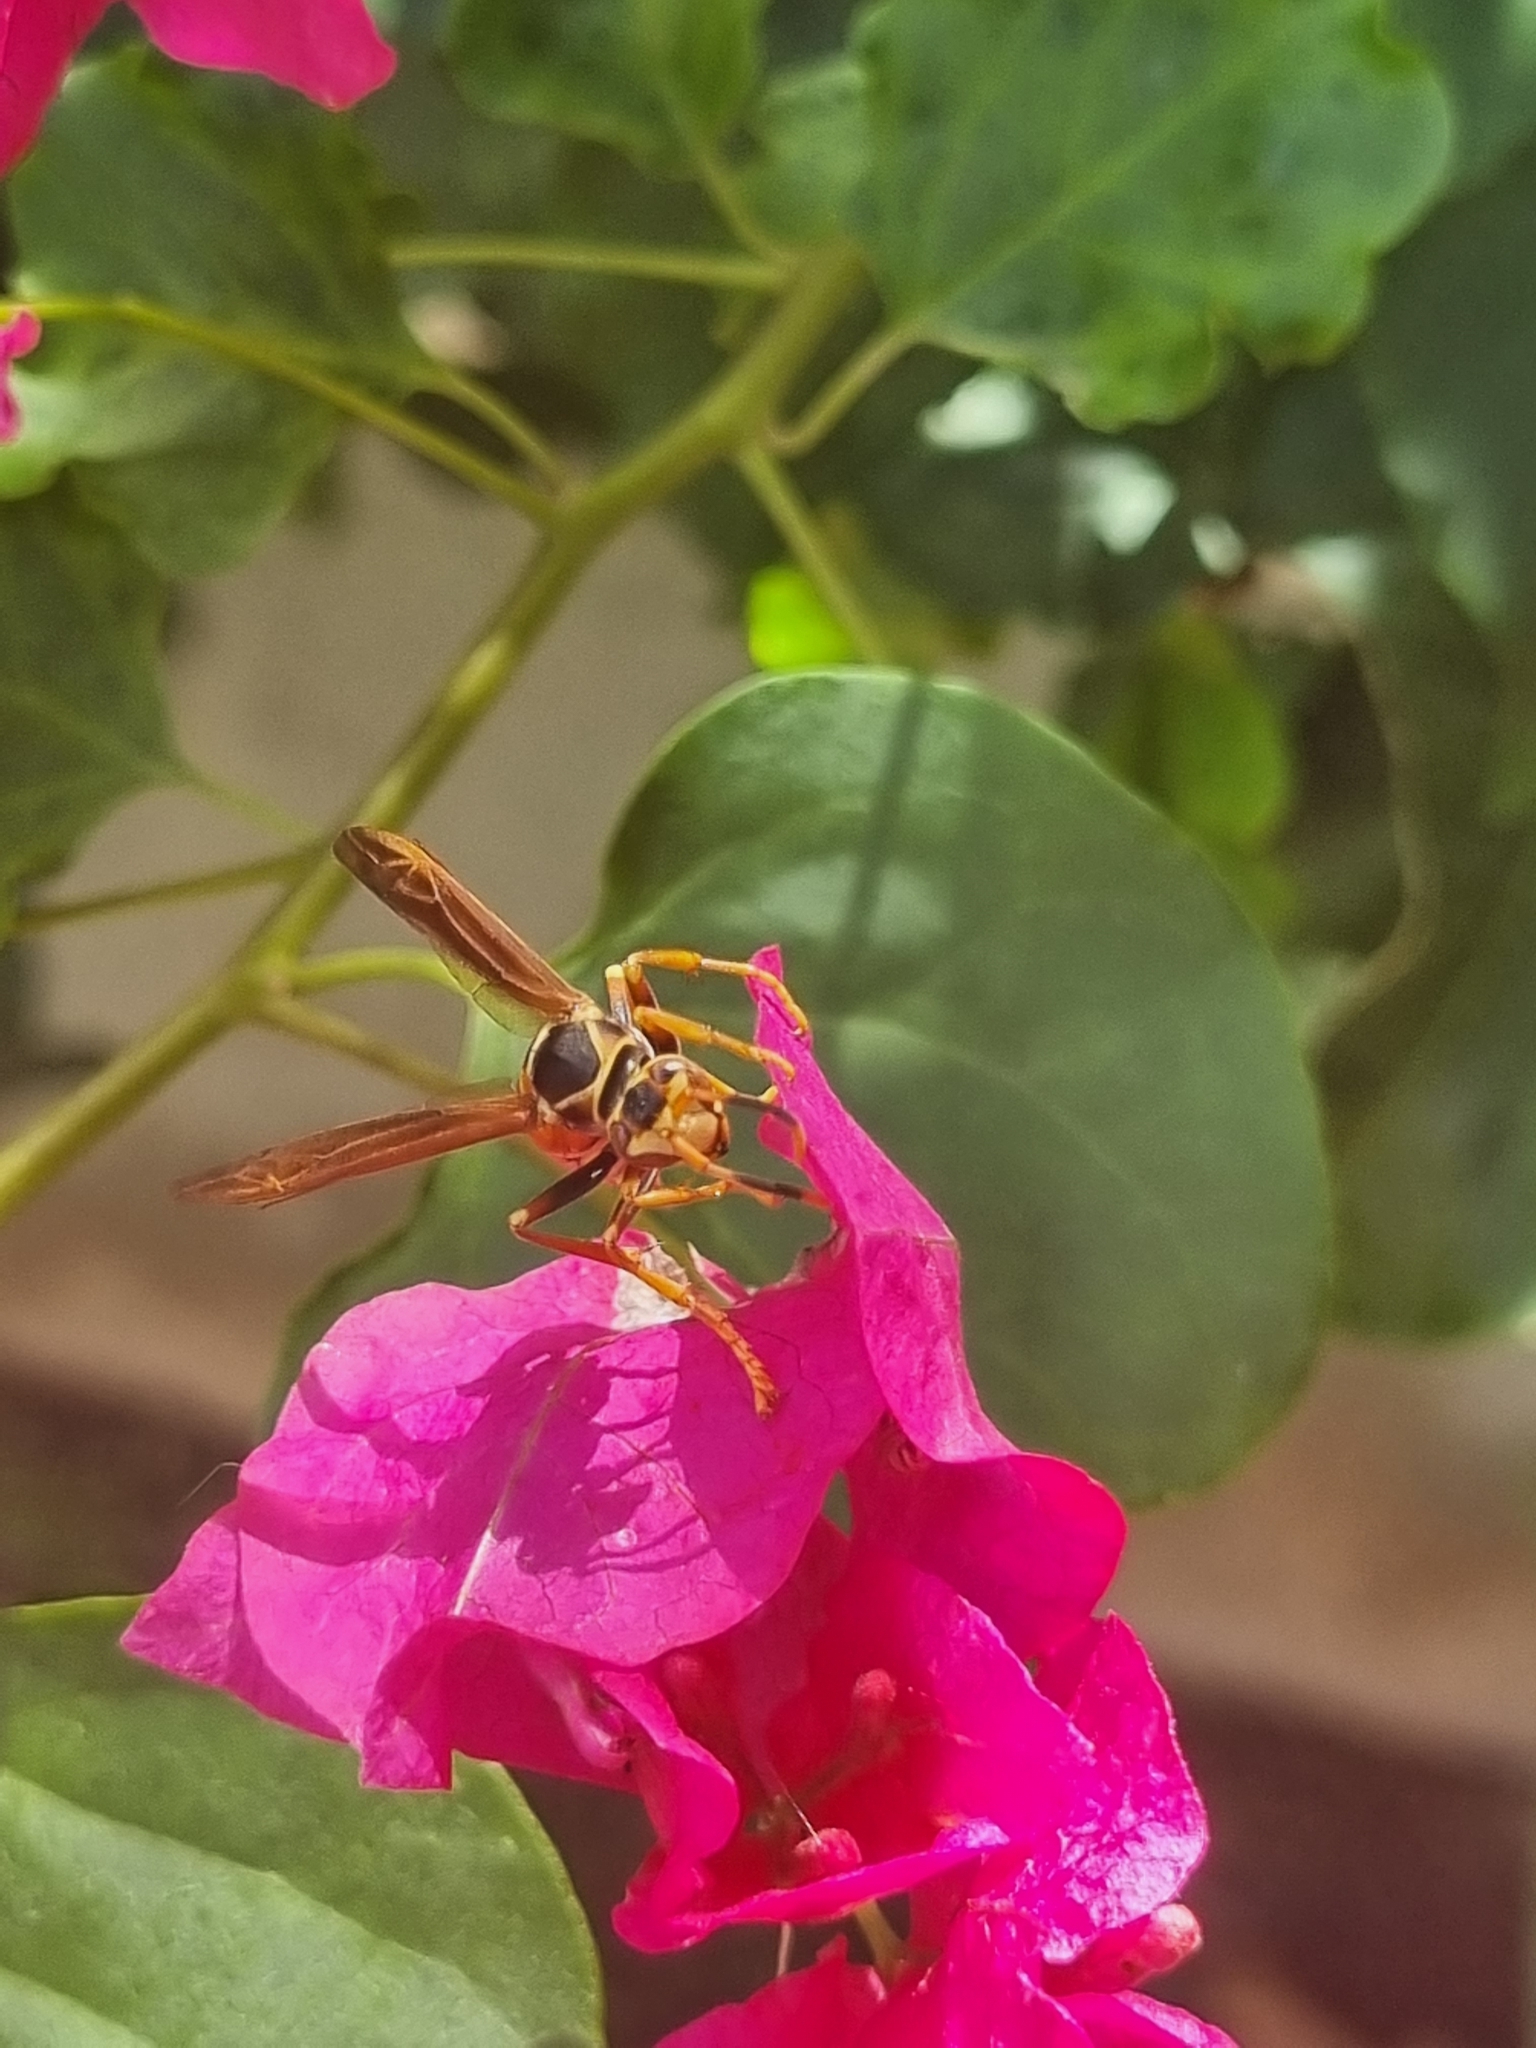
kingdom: Animalia
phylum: Arthropoda
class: Insecta
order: Hymenoptera
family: Eumenidae
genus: Polistes
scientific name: Polistes buyssoni
